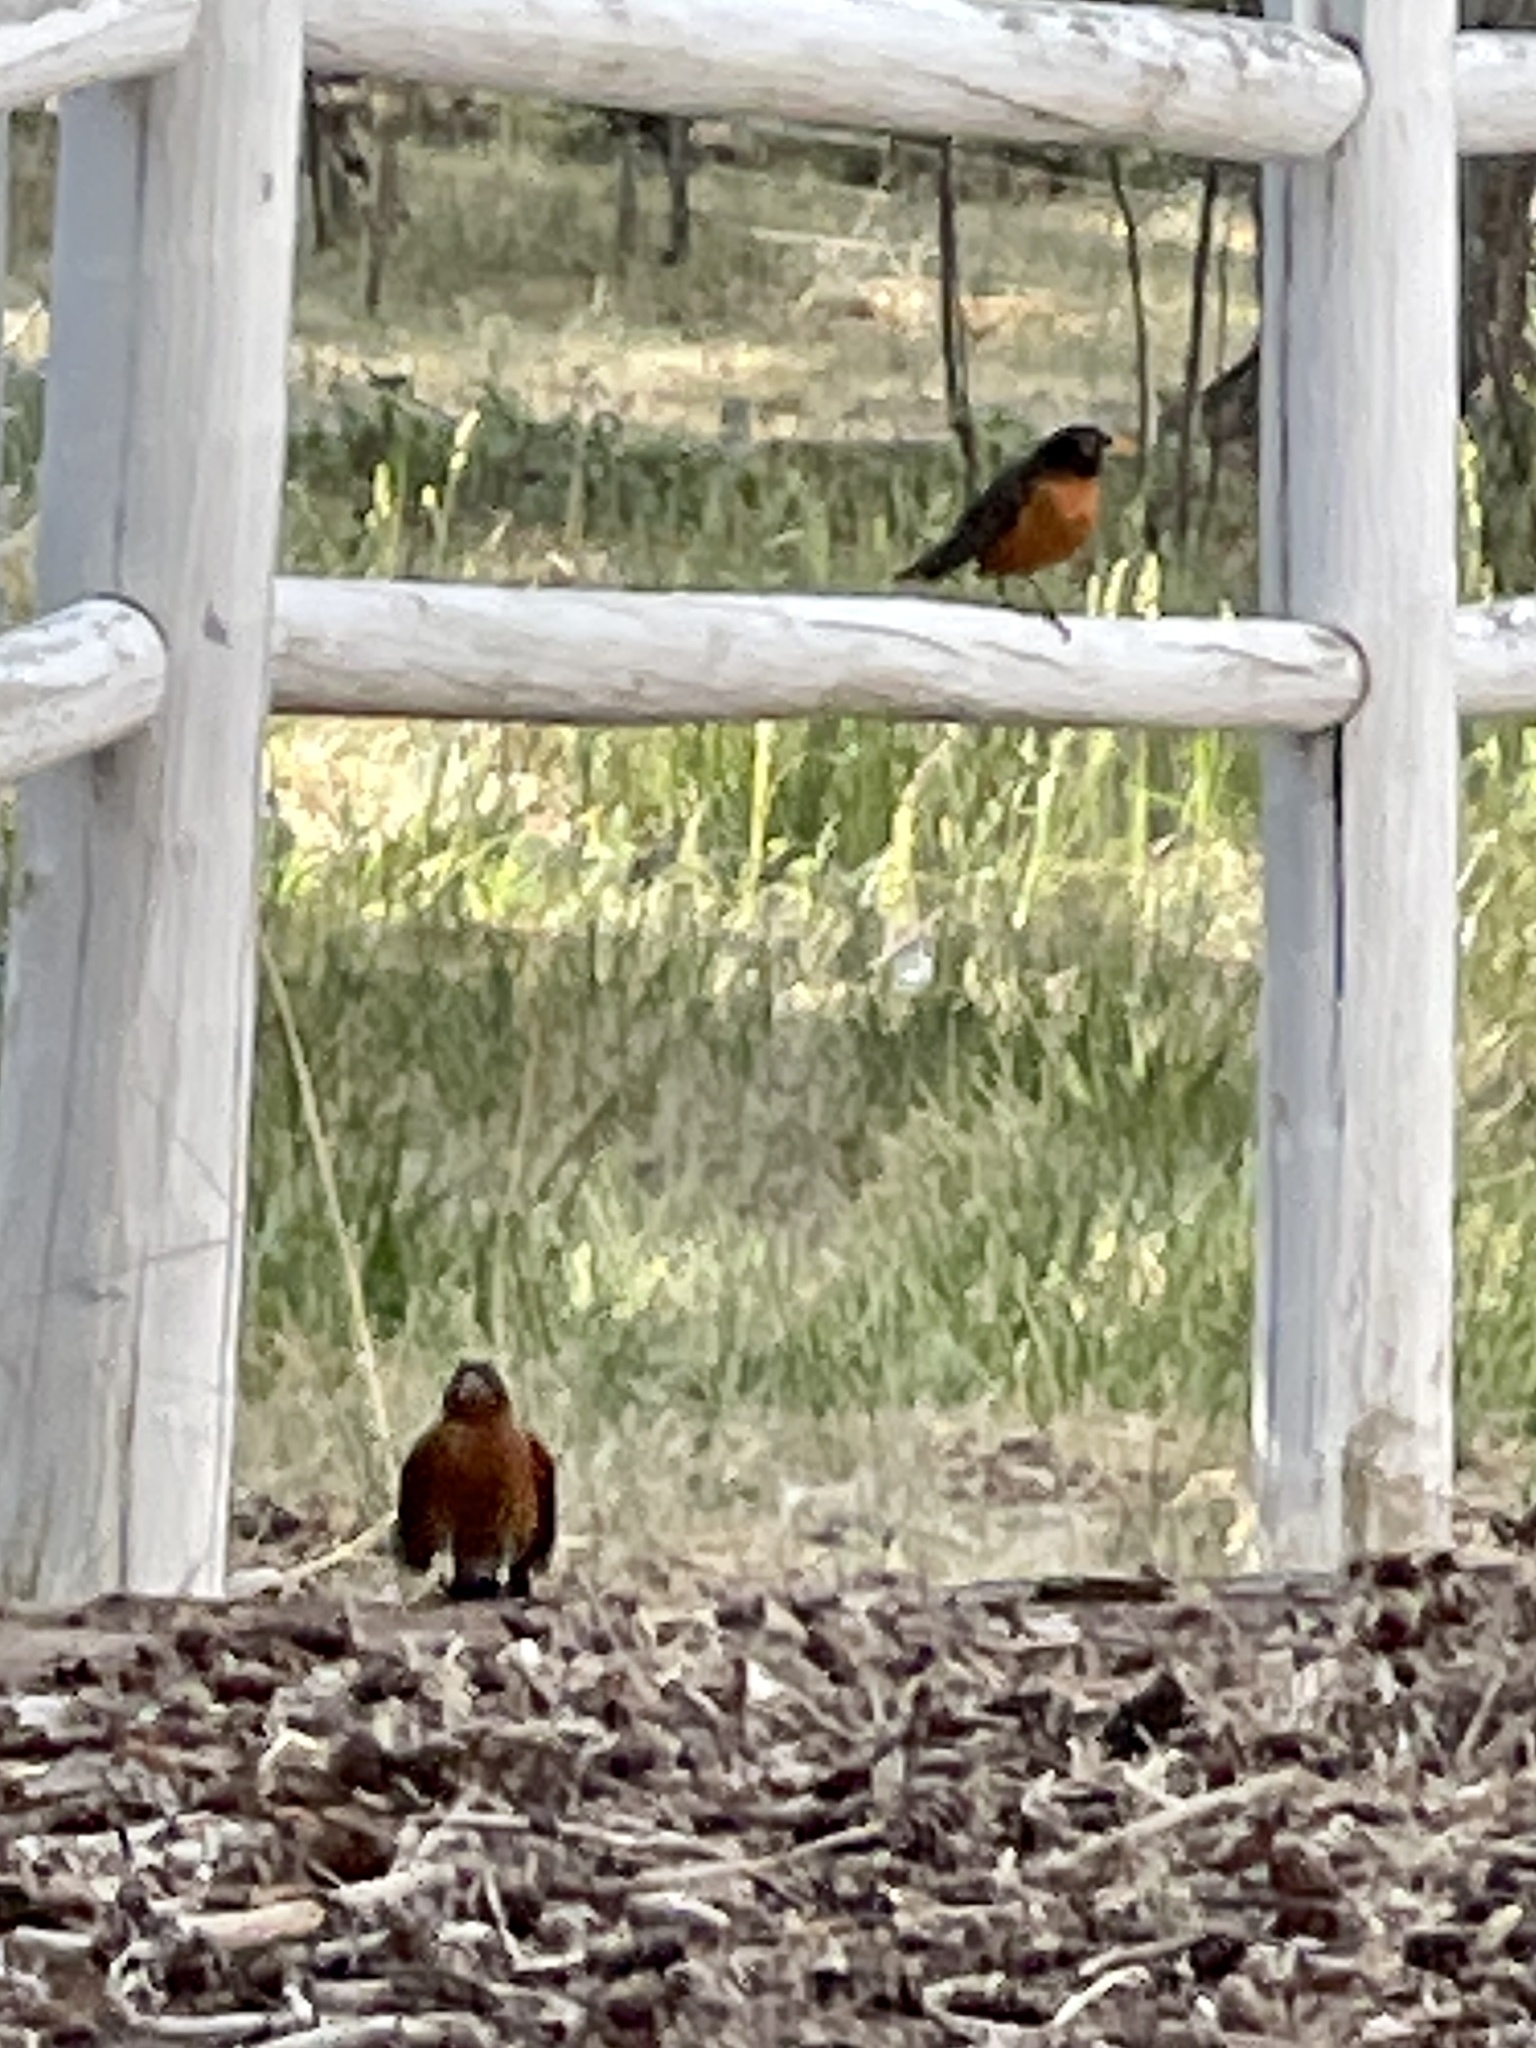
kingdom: Animalia
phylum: Chordata
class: Aves
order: Passeriformes
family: Turdidae
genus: Turdus
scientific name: Turdus migratorius
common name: American robin
